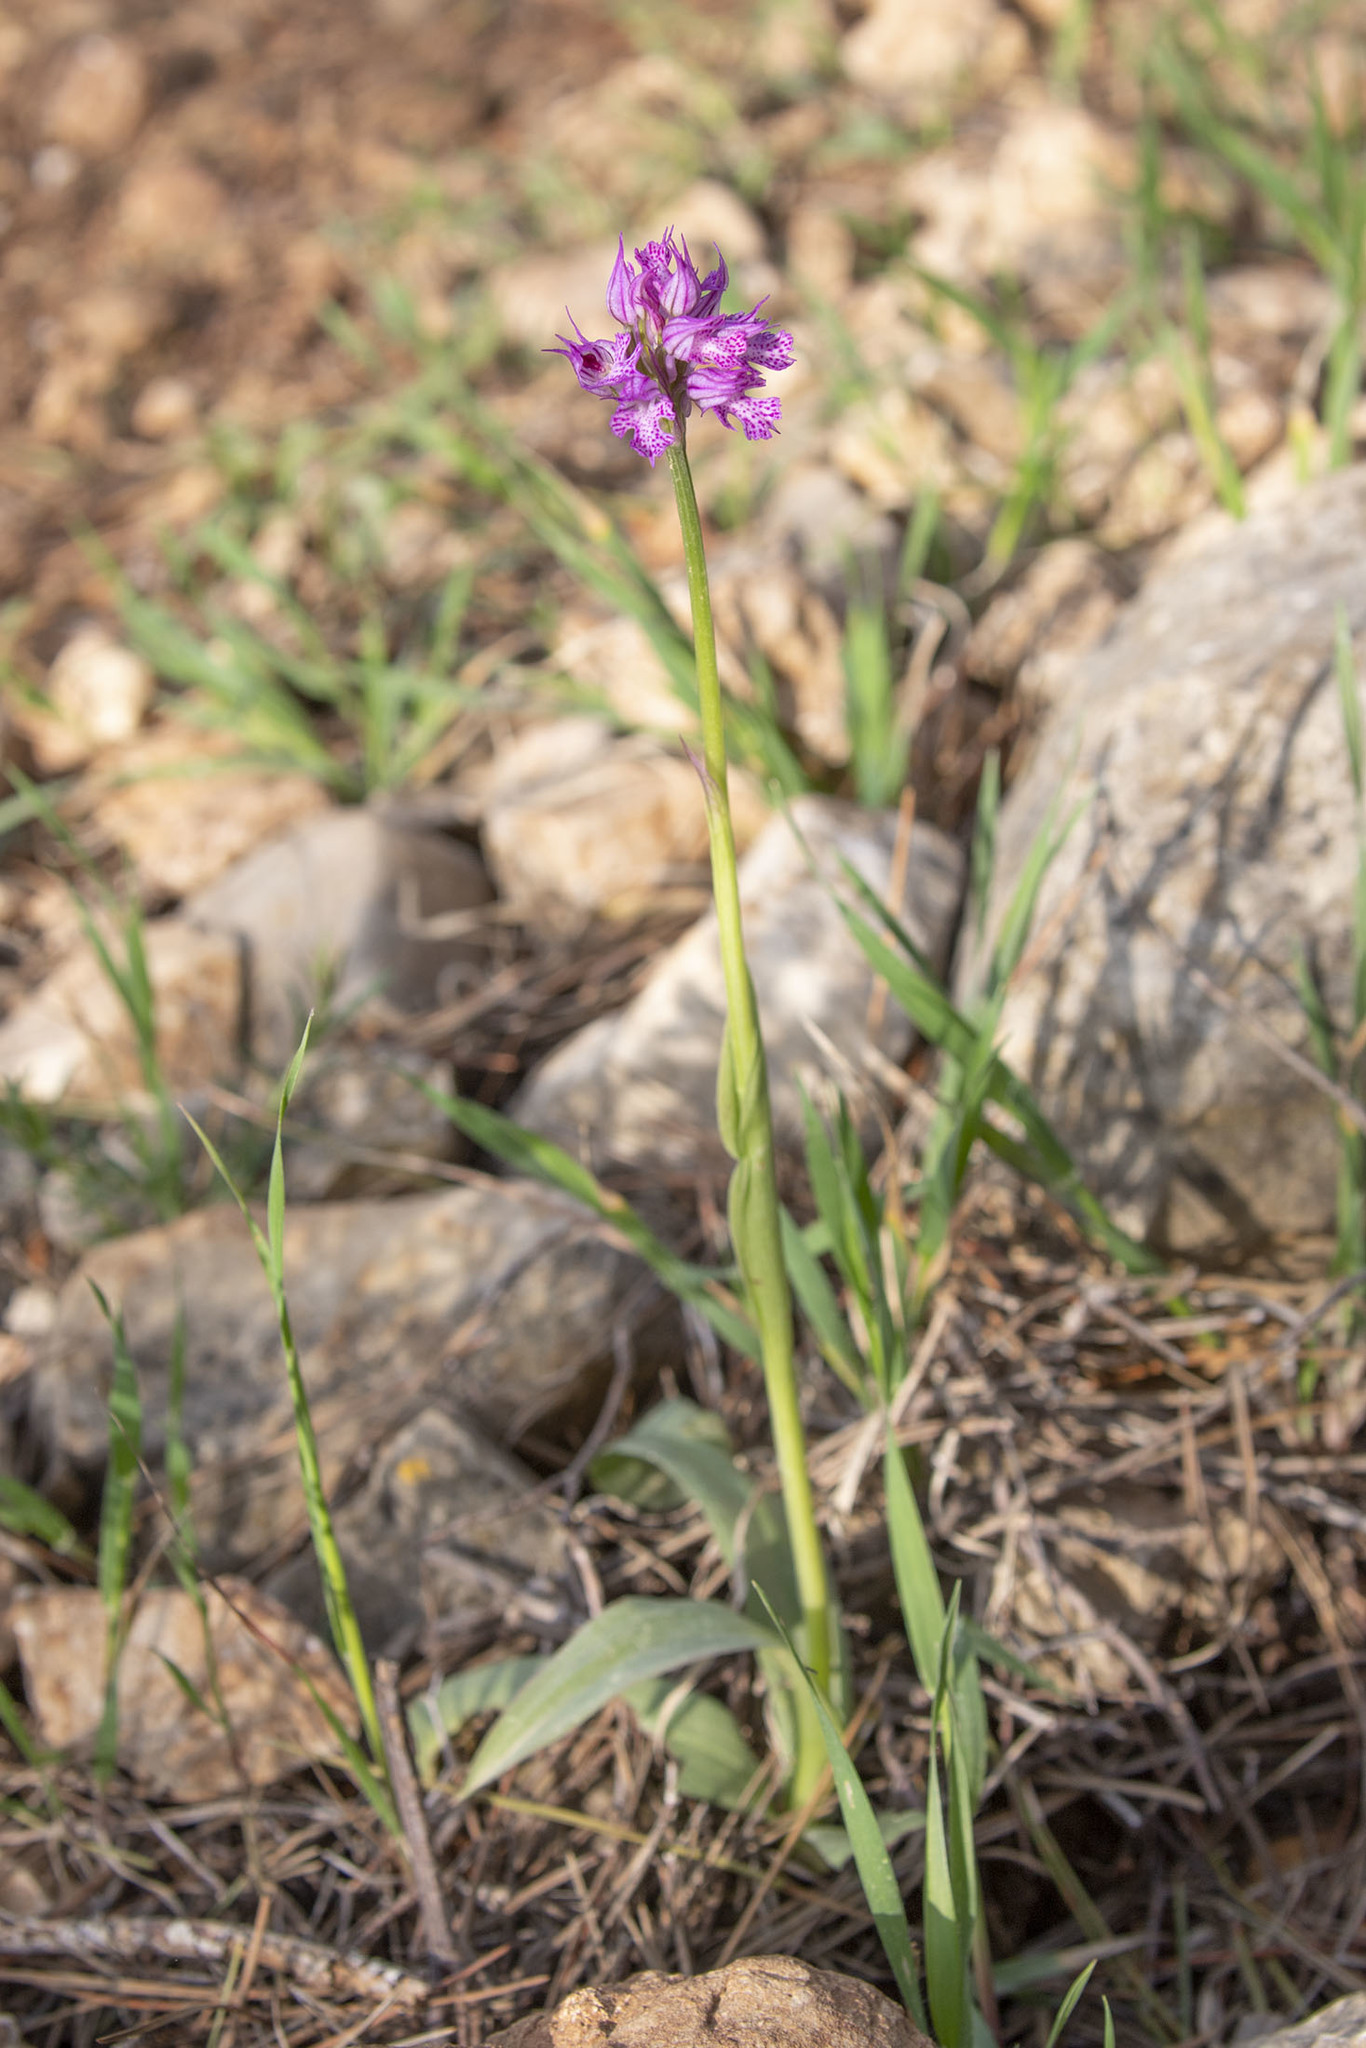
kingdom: Plantae
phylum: Tracheophyta
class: Liliopsida
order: Asparagales
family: Orchidaceae
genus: Neotinea
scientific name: Neotinea tridentata
